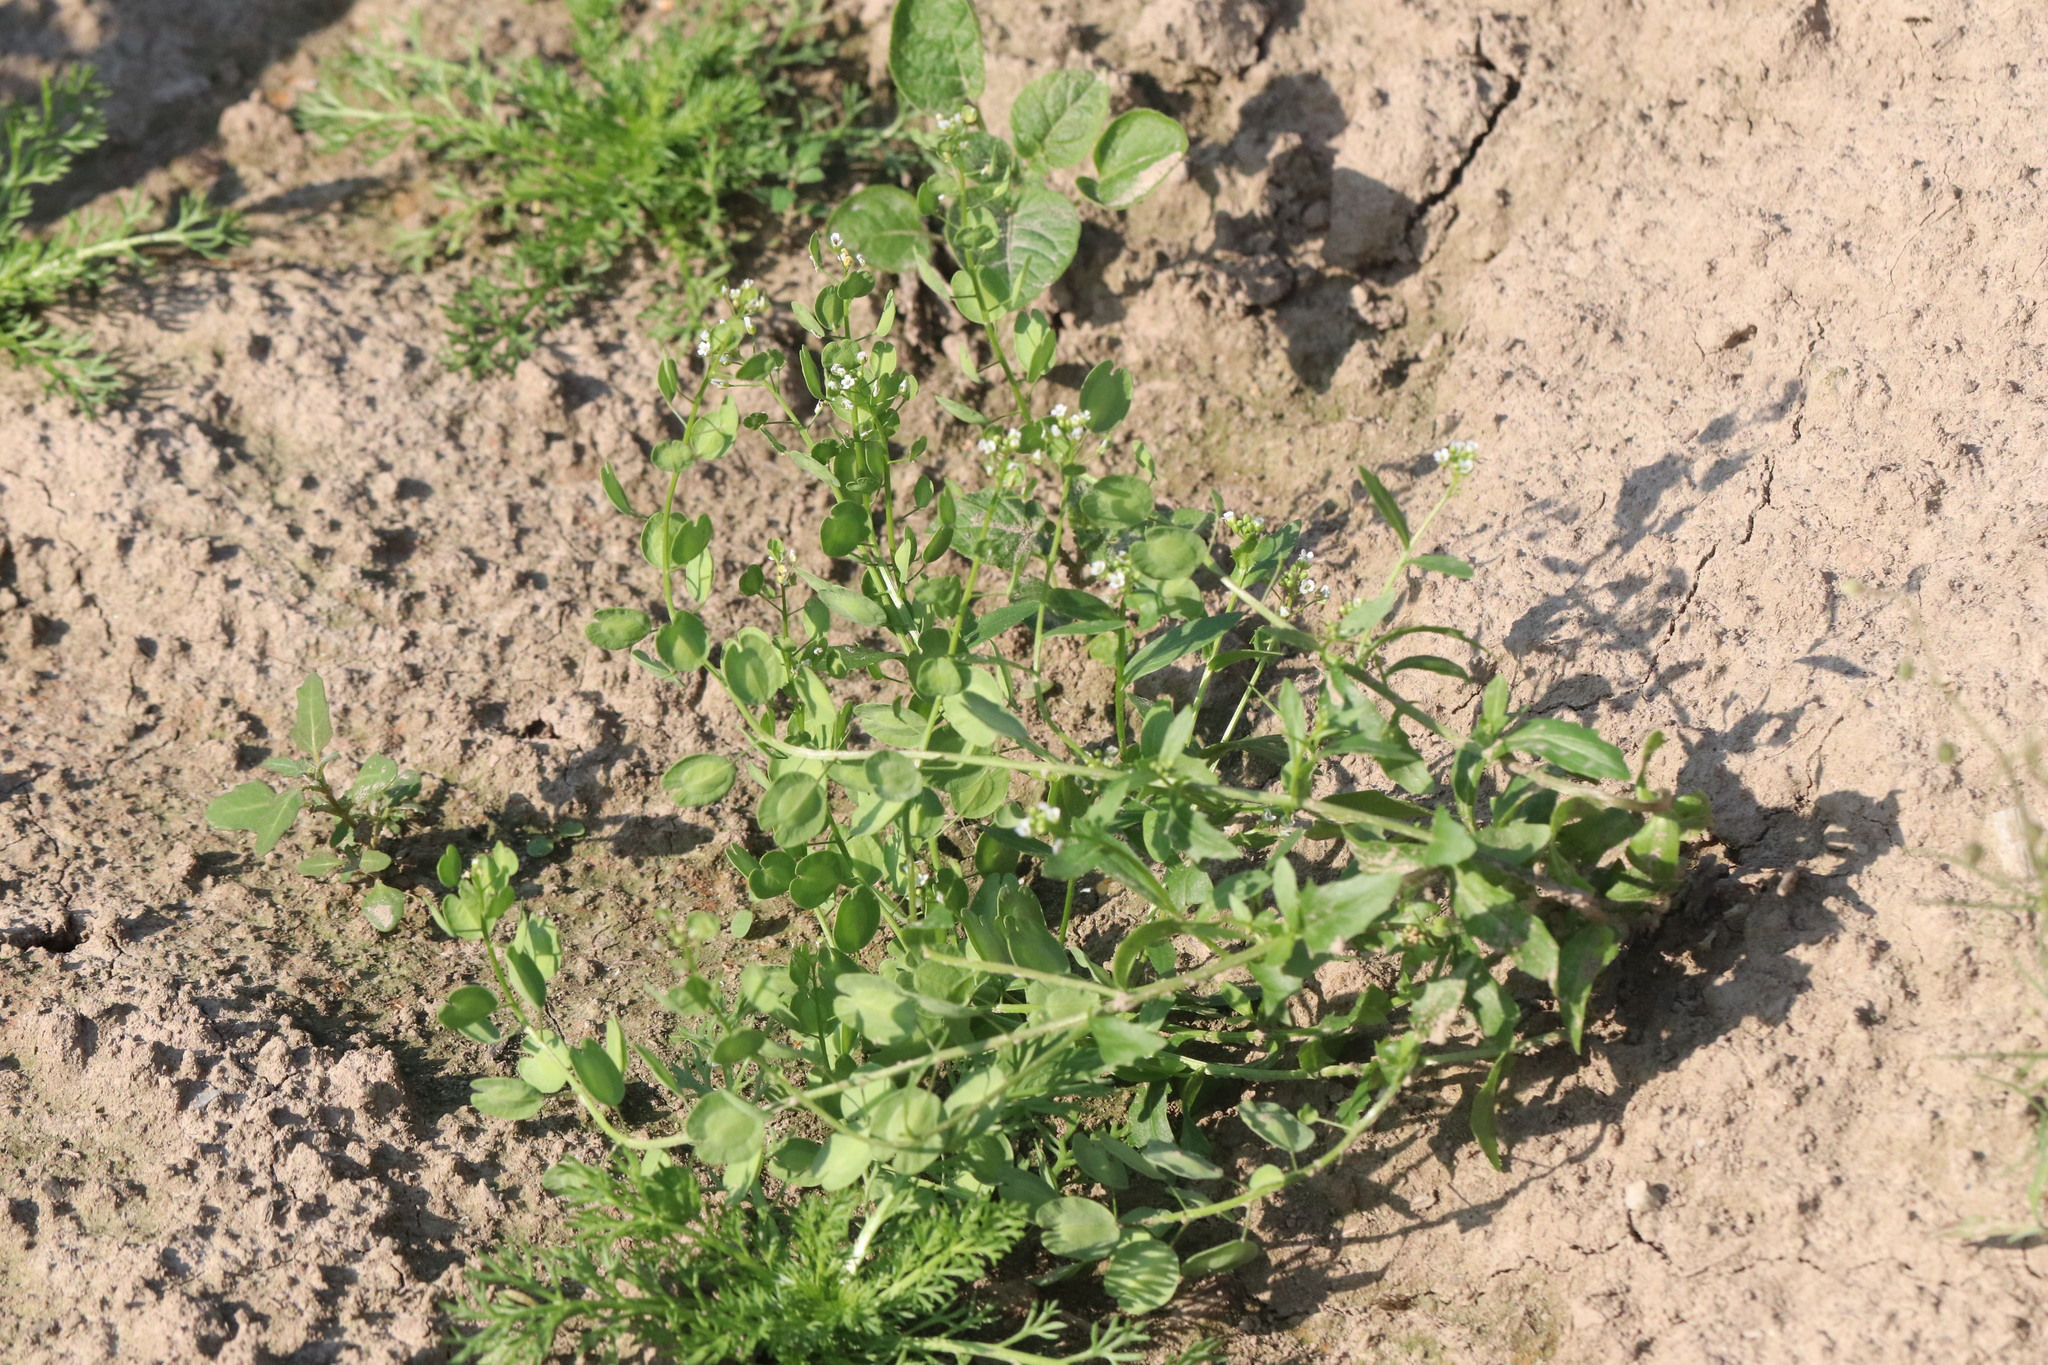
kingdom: Plantae
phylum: Tracheophyta
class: Magnoliopsida
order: Brassicales
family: Brassicaceae
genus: Thlaspi
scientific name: Thlaspi arvense
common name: Field pennycress
